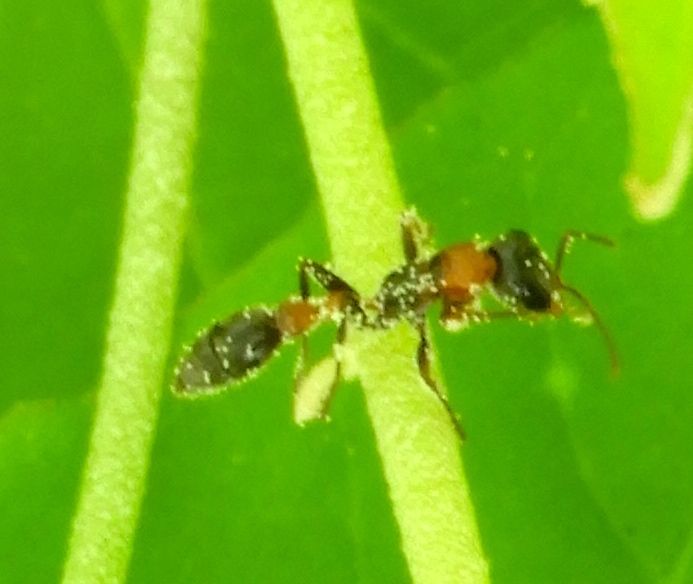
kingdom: Animalia
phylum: Arthropoda
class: Insecta
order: Hymenoptera
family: Formicidae
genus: Pseudomyrmex
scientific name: Pseudomyrmex gracilis
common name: Graceful twig ant
